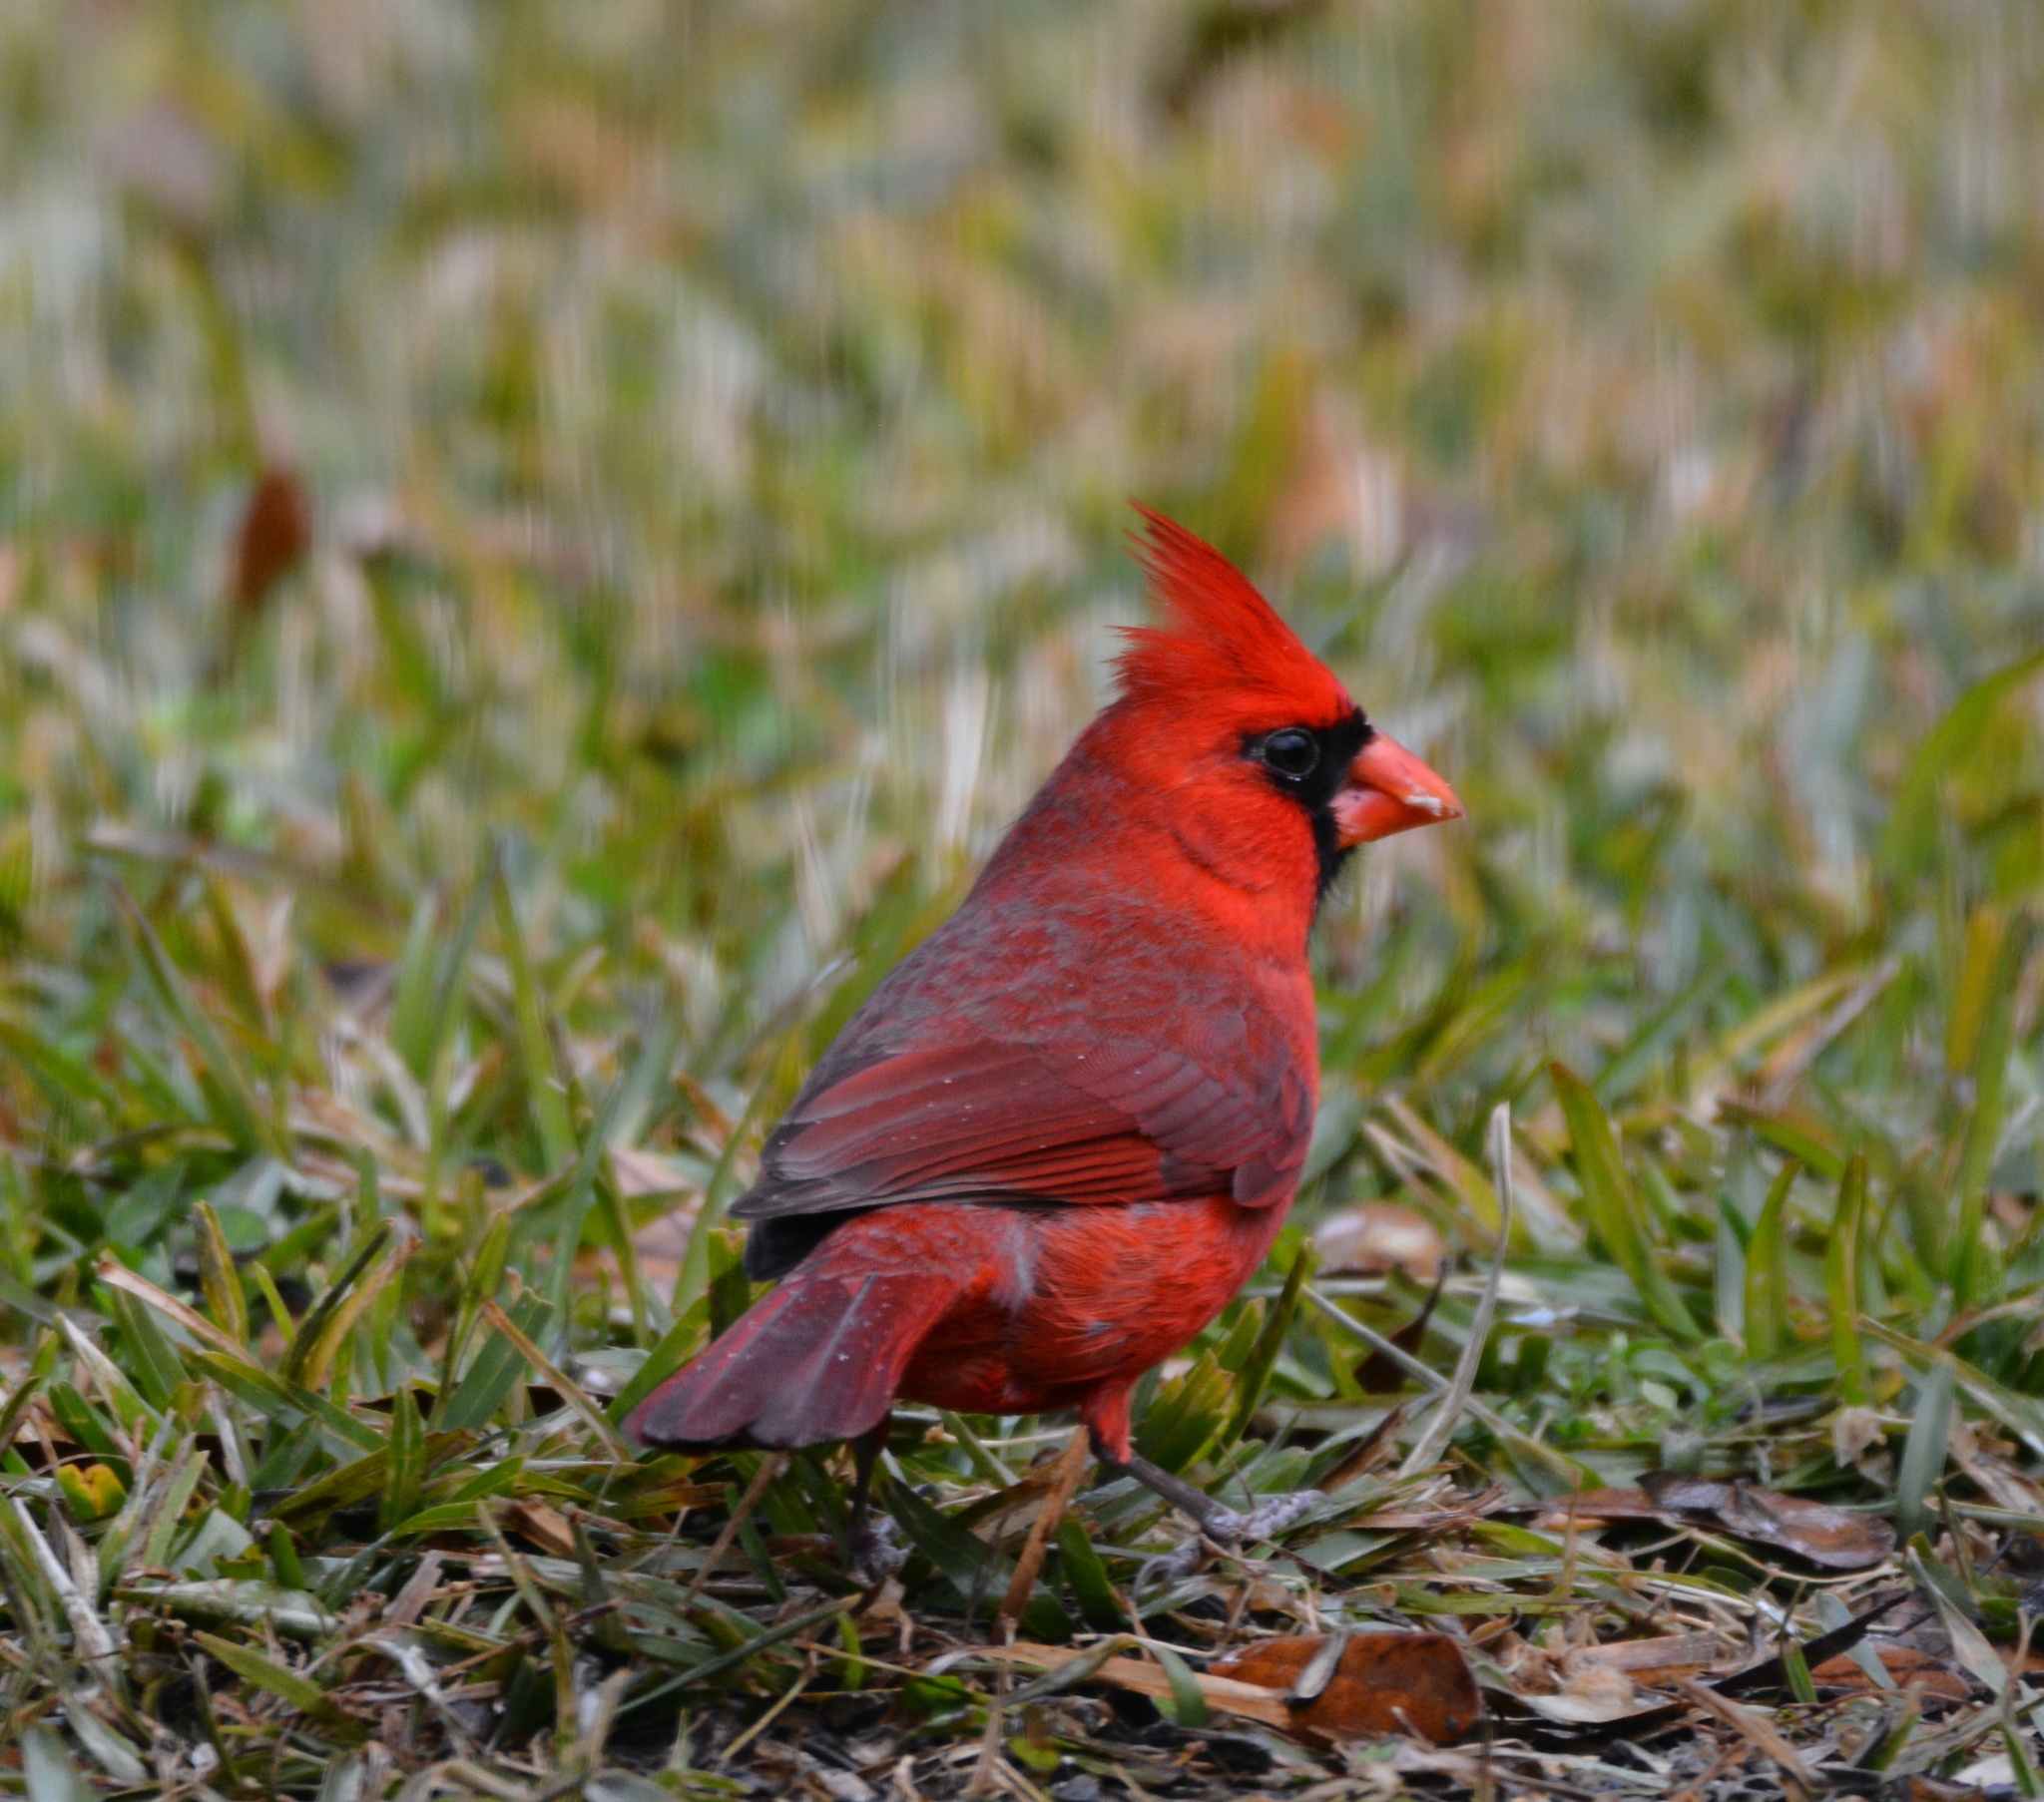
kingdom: Animalia
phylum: Chordata
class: Aves
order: Passeriformes
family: Cardinalidae
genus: Cardinalis
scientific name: Cardinalis cardinalis
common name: Northern cardinal
